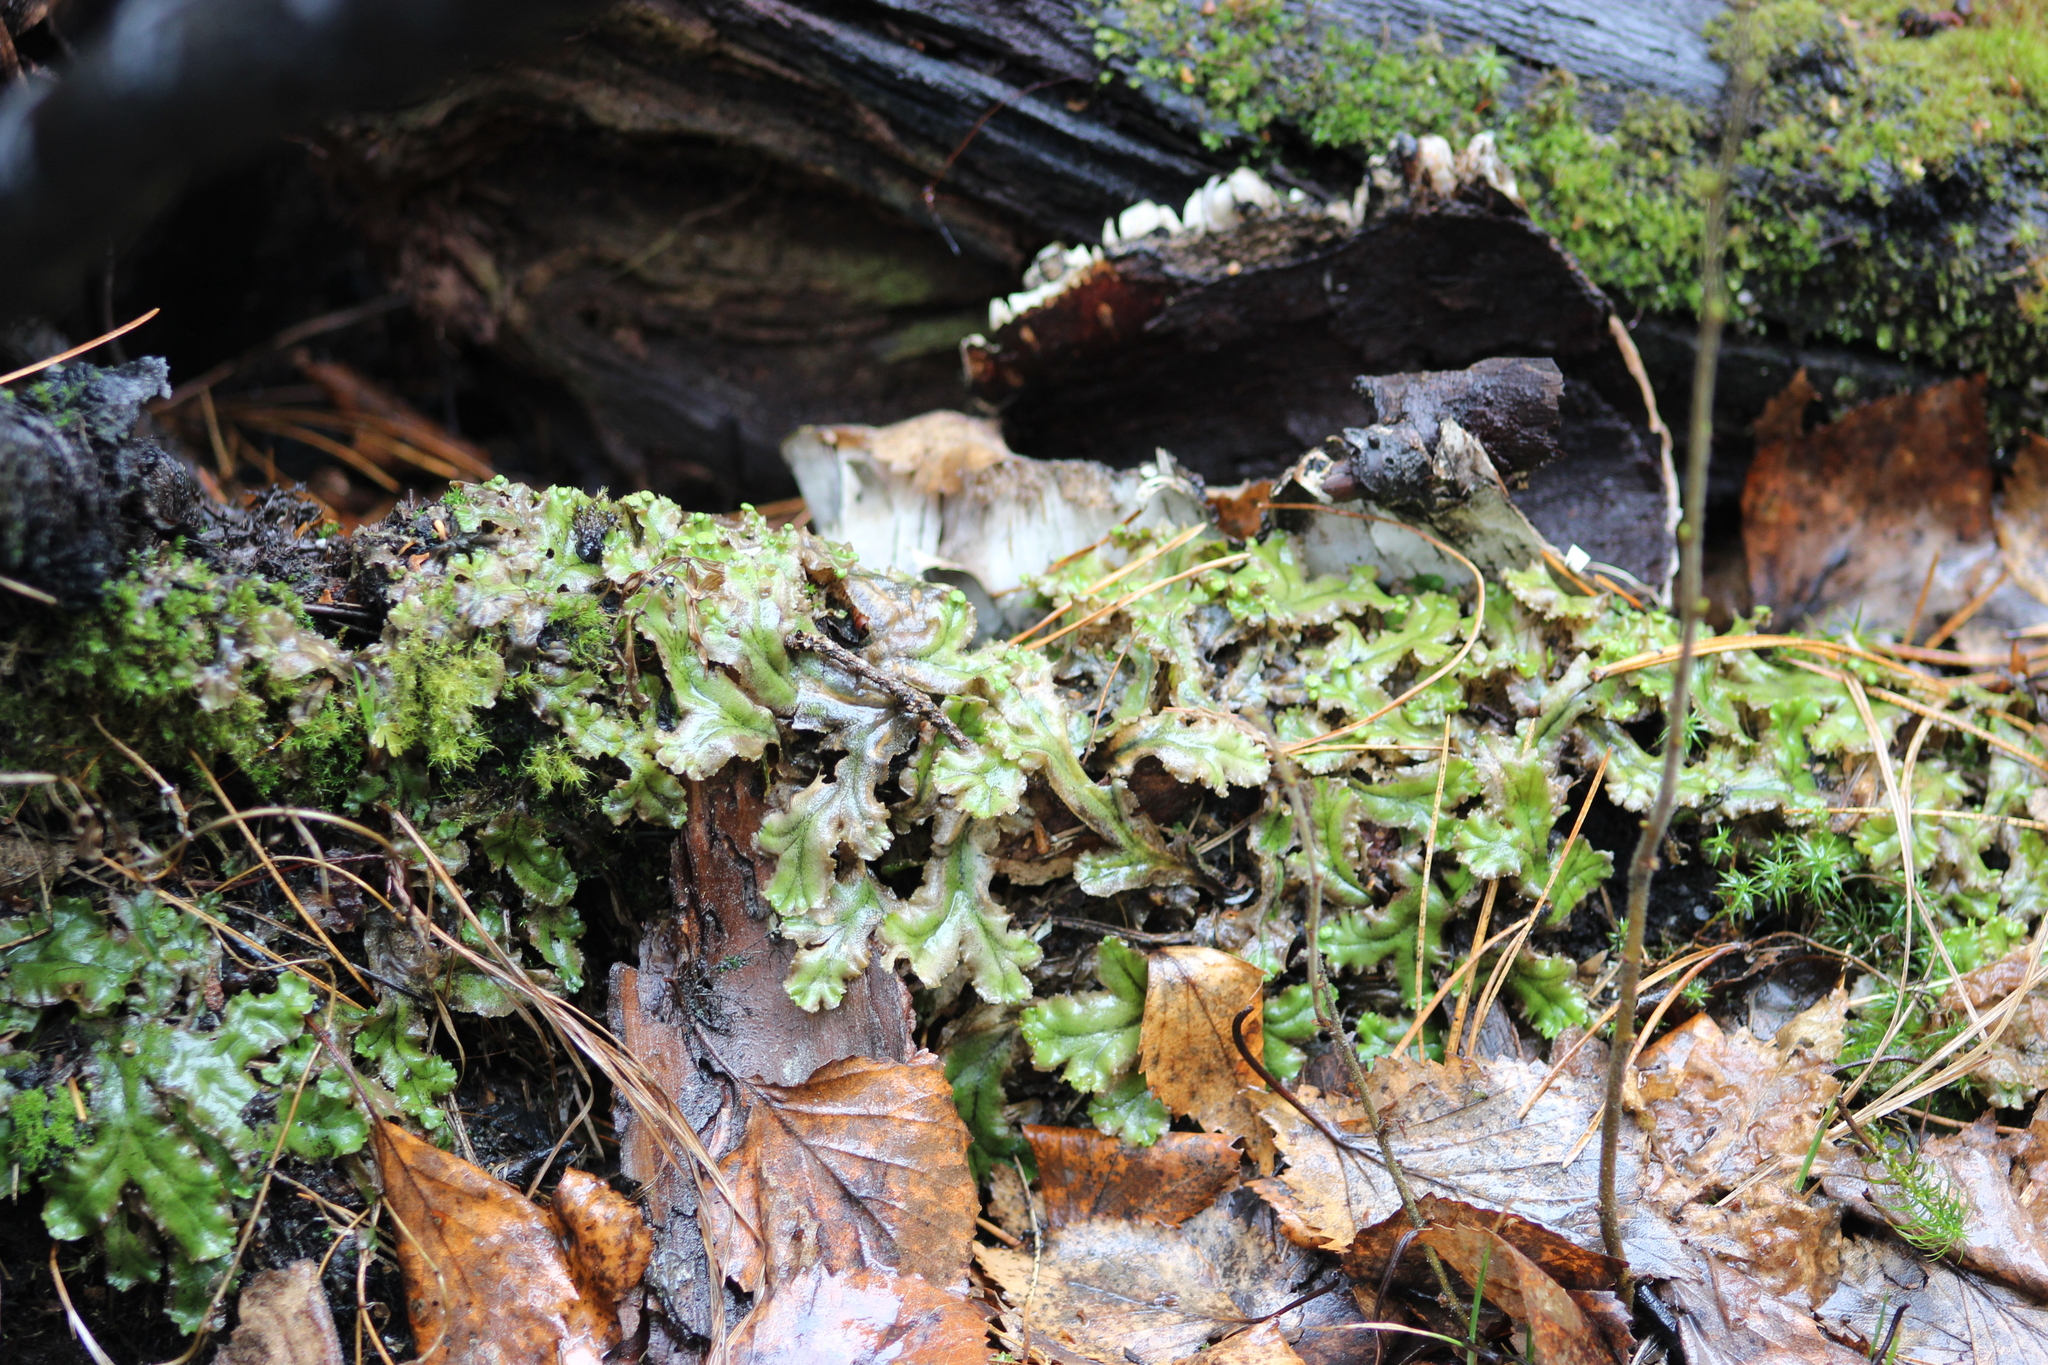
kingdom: Plantae
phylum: Marchantiophyta
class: Marchantiopsida
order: Marchantiales
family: Marchantiaceae
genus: Marchantia
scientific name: Marchantia polymorpha
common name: Common liverwort
